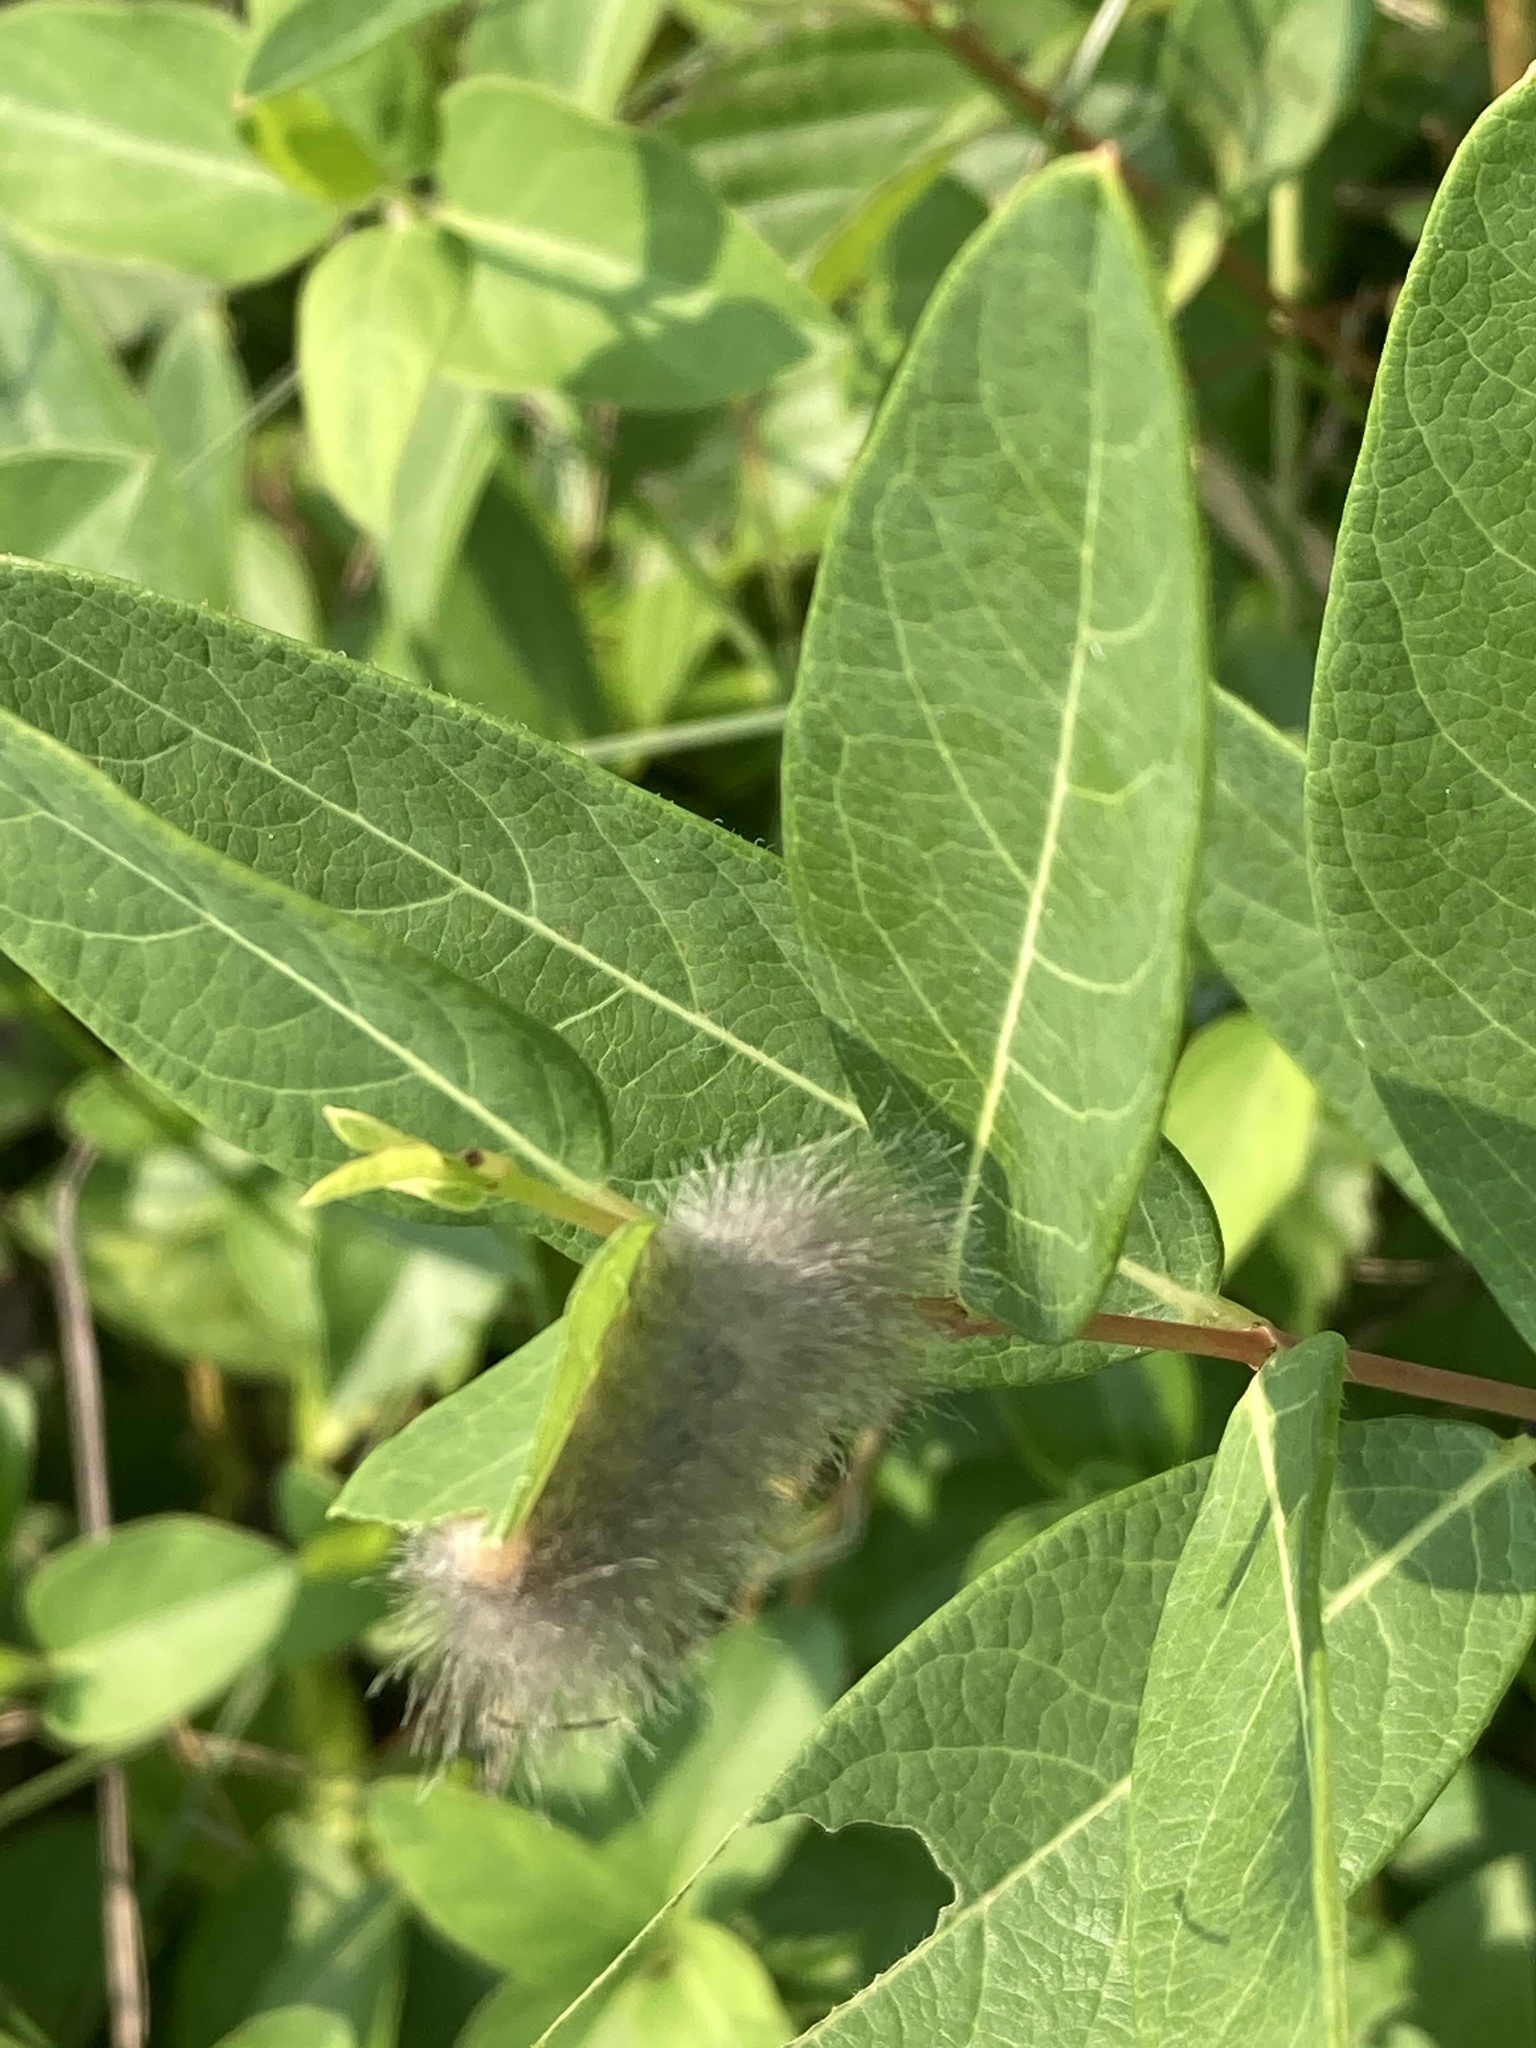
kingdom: Animalia
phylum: Arthropoda
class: Insecta
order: Lepidoptera
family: Erebidae
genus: Cycnia
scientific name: Cycnia tenera
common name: Delicate cycnia moth
